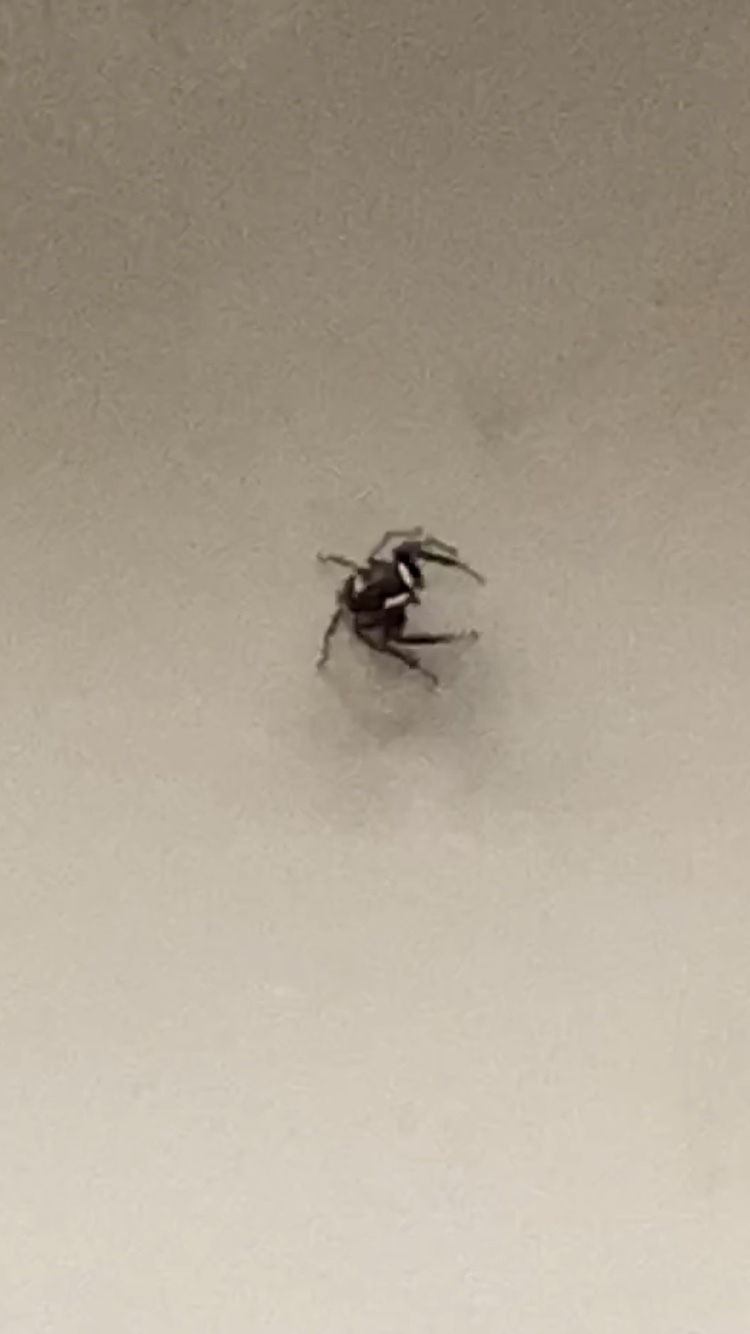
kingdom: Animalia
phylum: Arthropoda
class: Arachnida
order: Araneae
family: Salticidae
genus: Hasarius
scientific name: Hasarius adansoni
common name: Jumping spider
